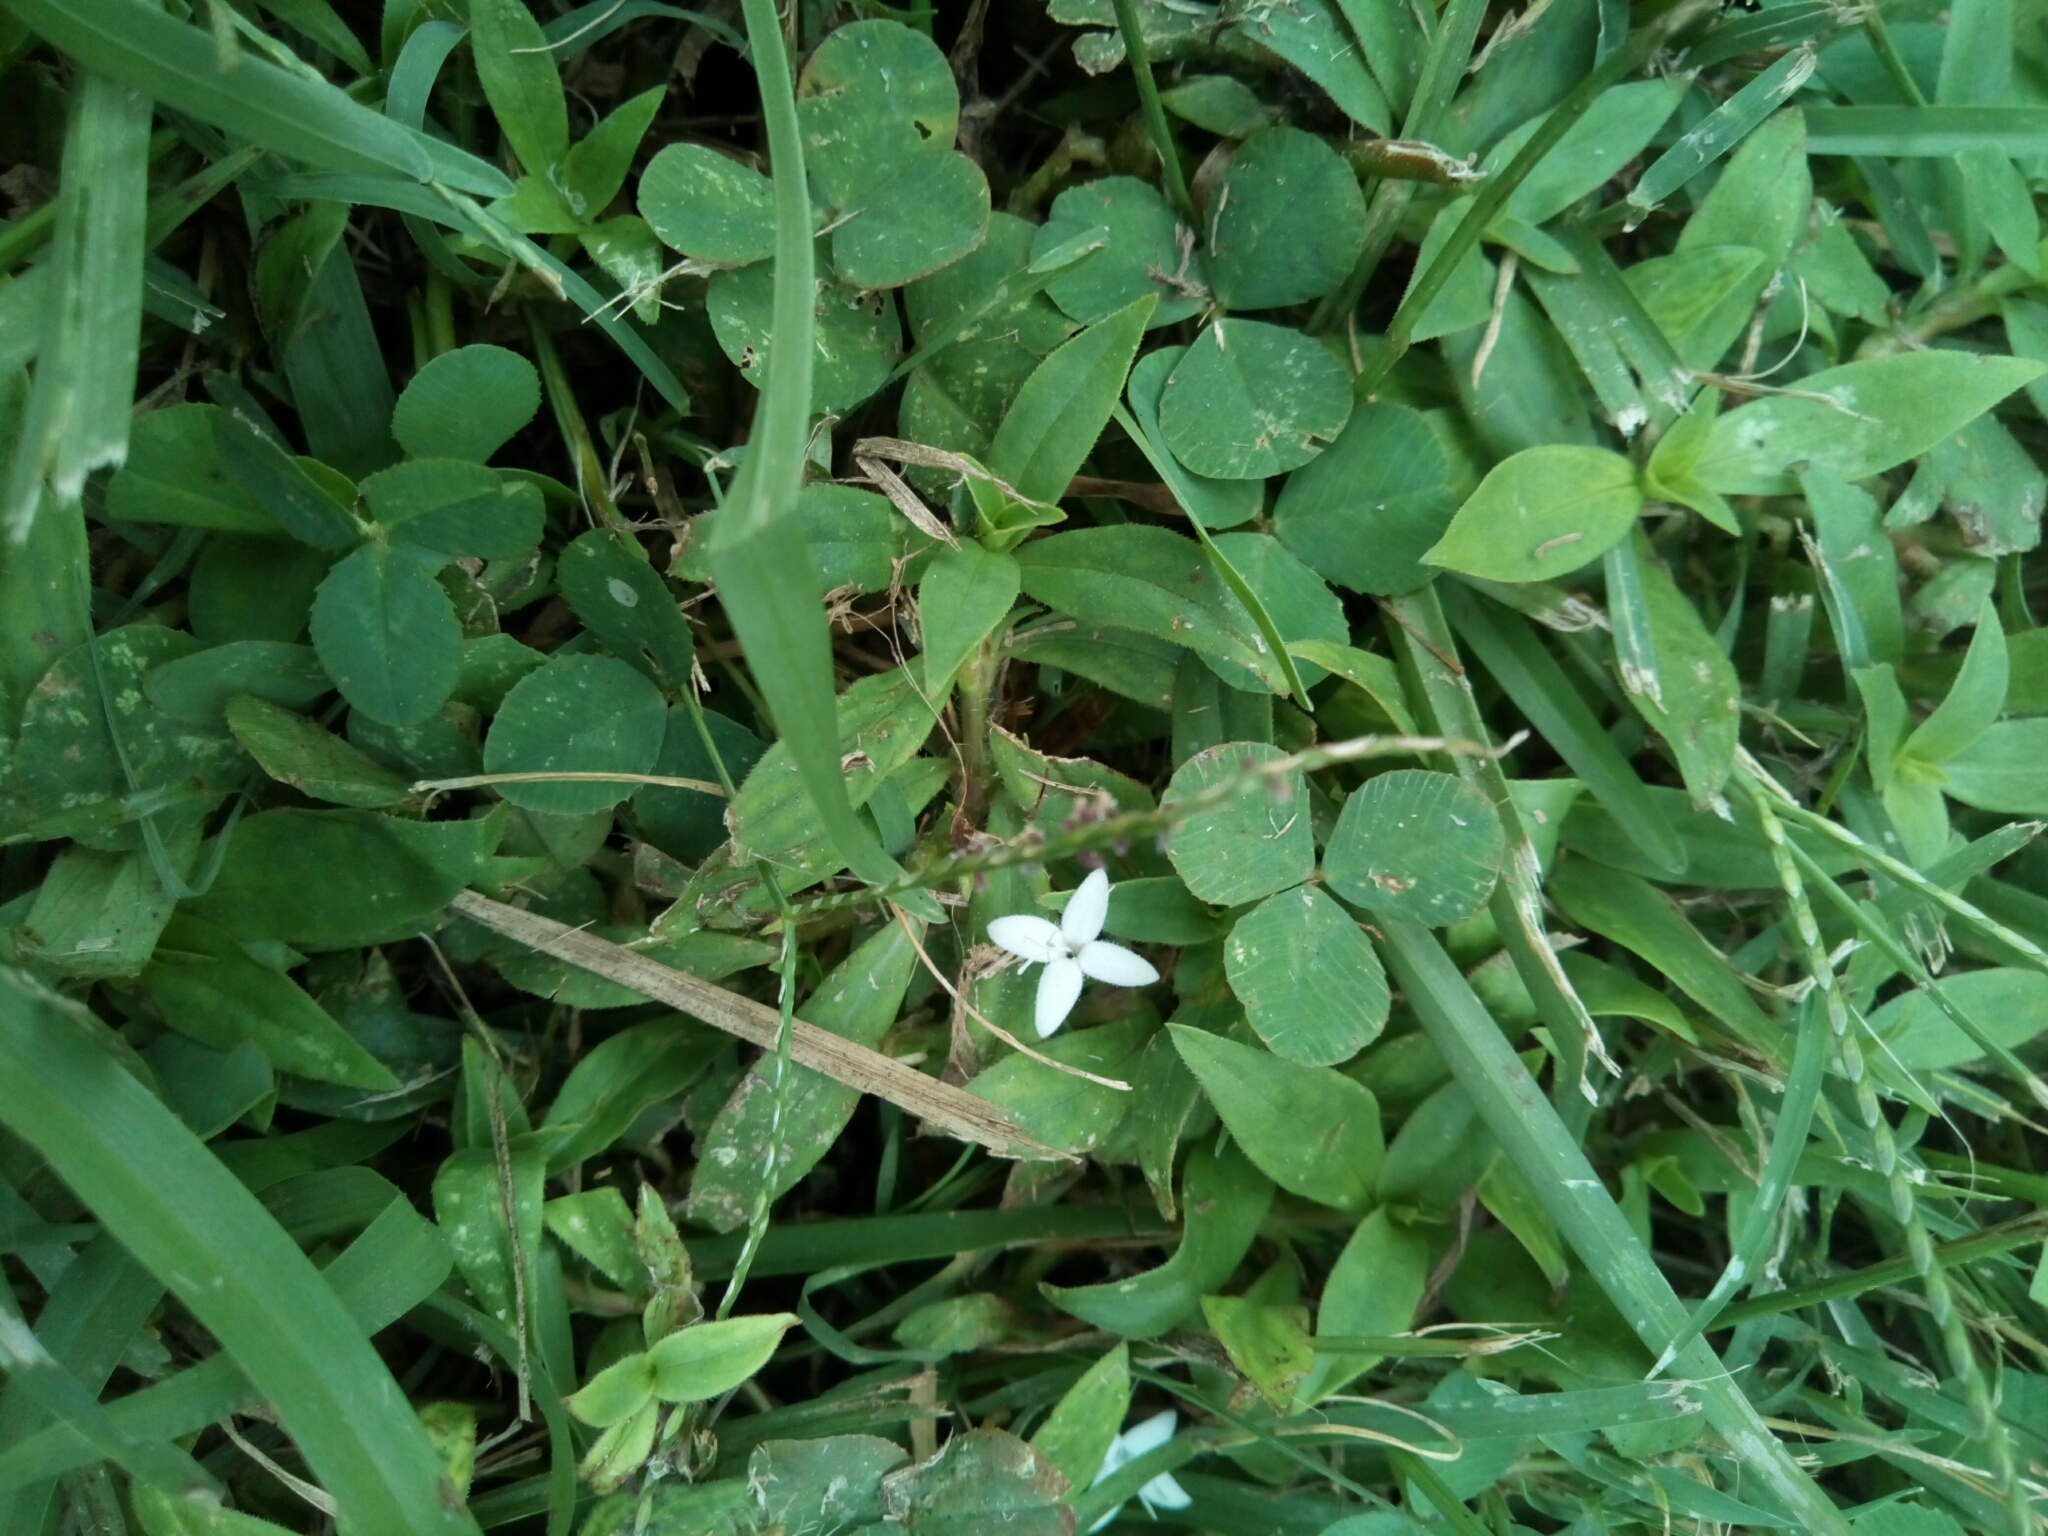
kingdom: Plantae
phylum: Tracheophyta
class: Magnoliopsida
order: Gentianales
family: Rubiaceae
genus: Diodia
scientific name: Diodia virginiana
